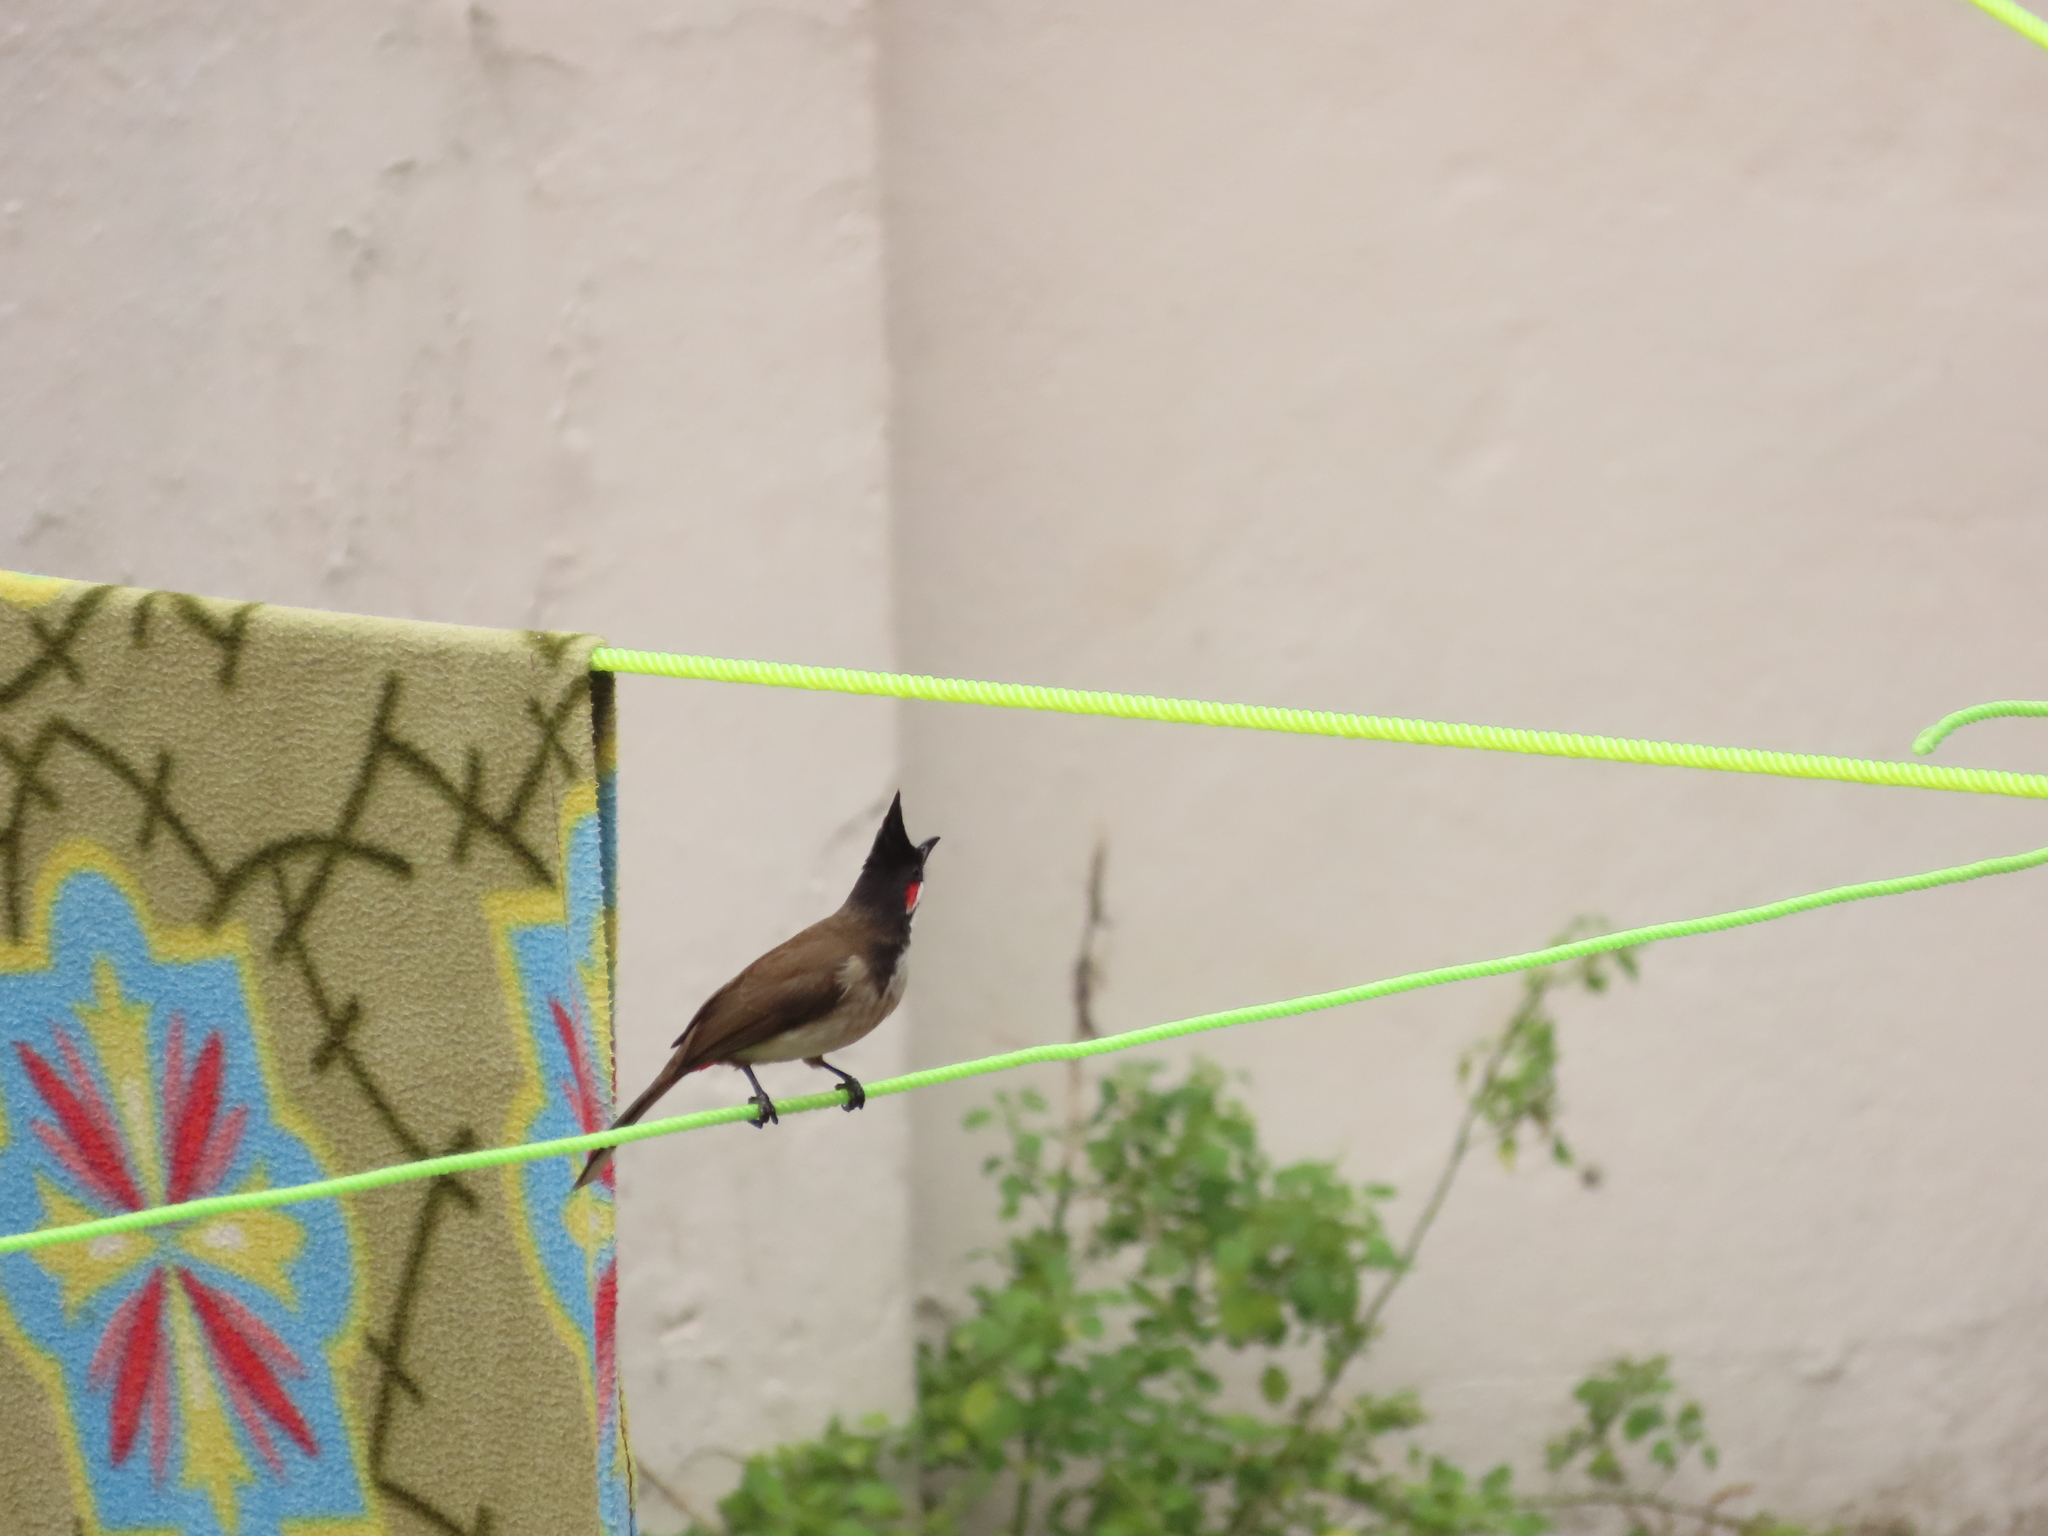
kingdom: Animalia
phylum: Chordata
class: Aves
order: Passeriformes
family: Pycnonotidae
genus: Pycnonotus
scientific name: Pycnonotus jocosus
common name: Red-whiskered bulbul
